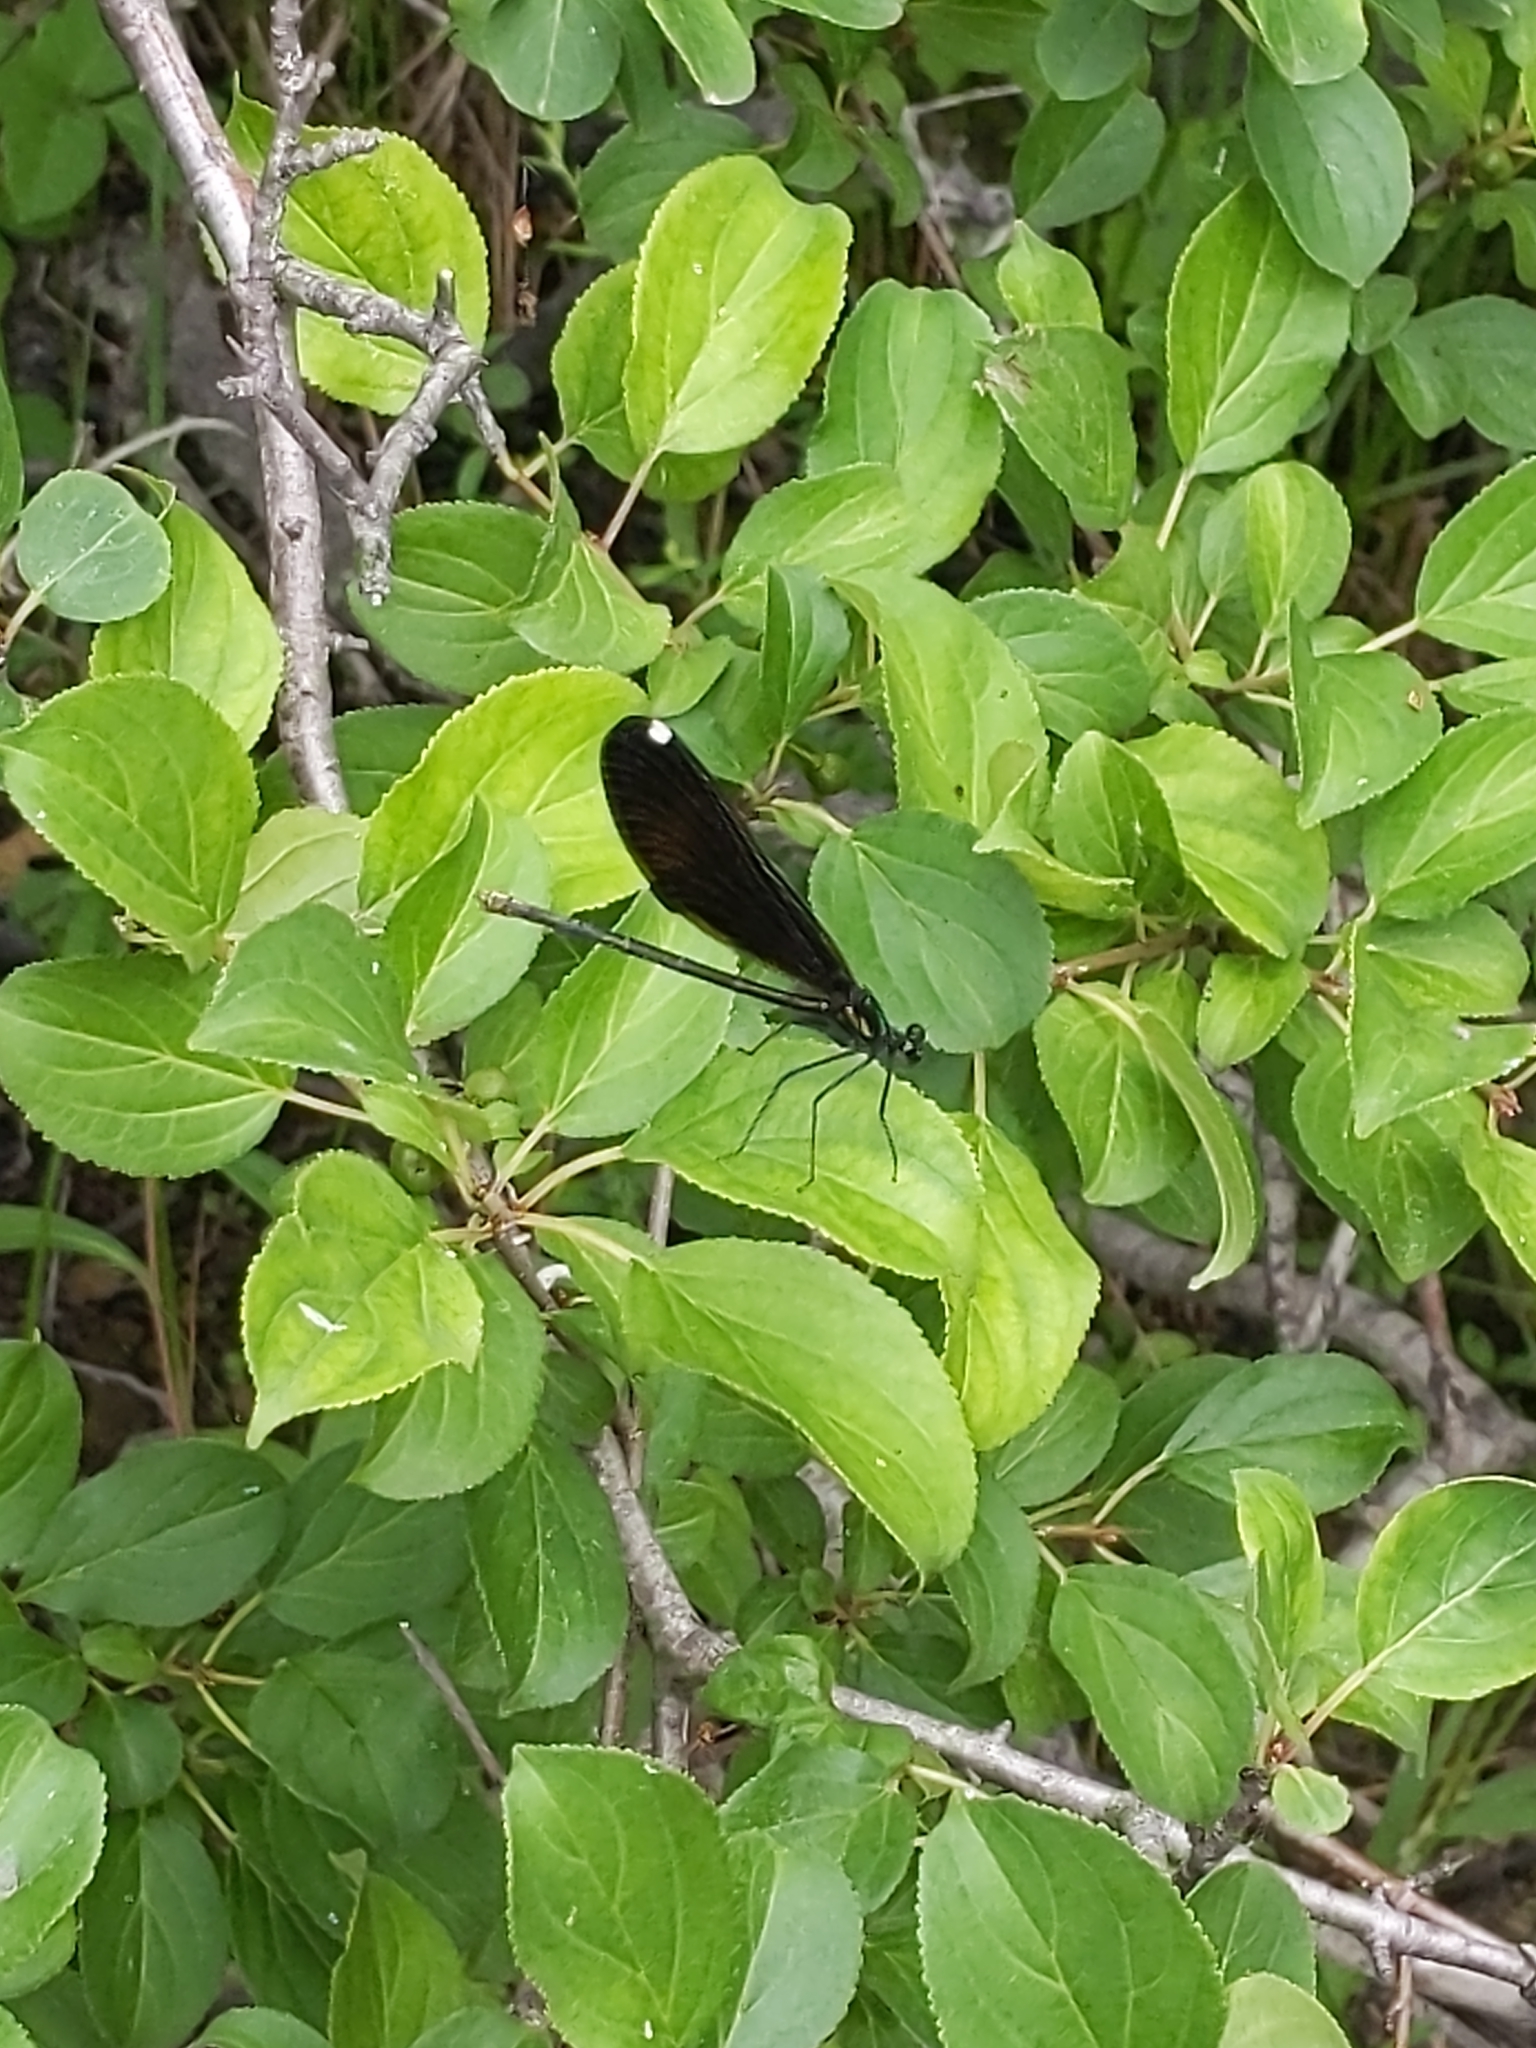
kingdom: Animalia
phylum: Arthropoda
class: Insecta
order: Odonata
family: Calopterygidae
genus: Calopteryx
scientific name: Calopteryx maculata
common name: Ebony jewelwing
